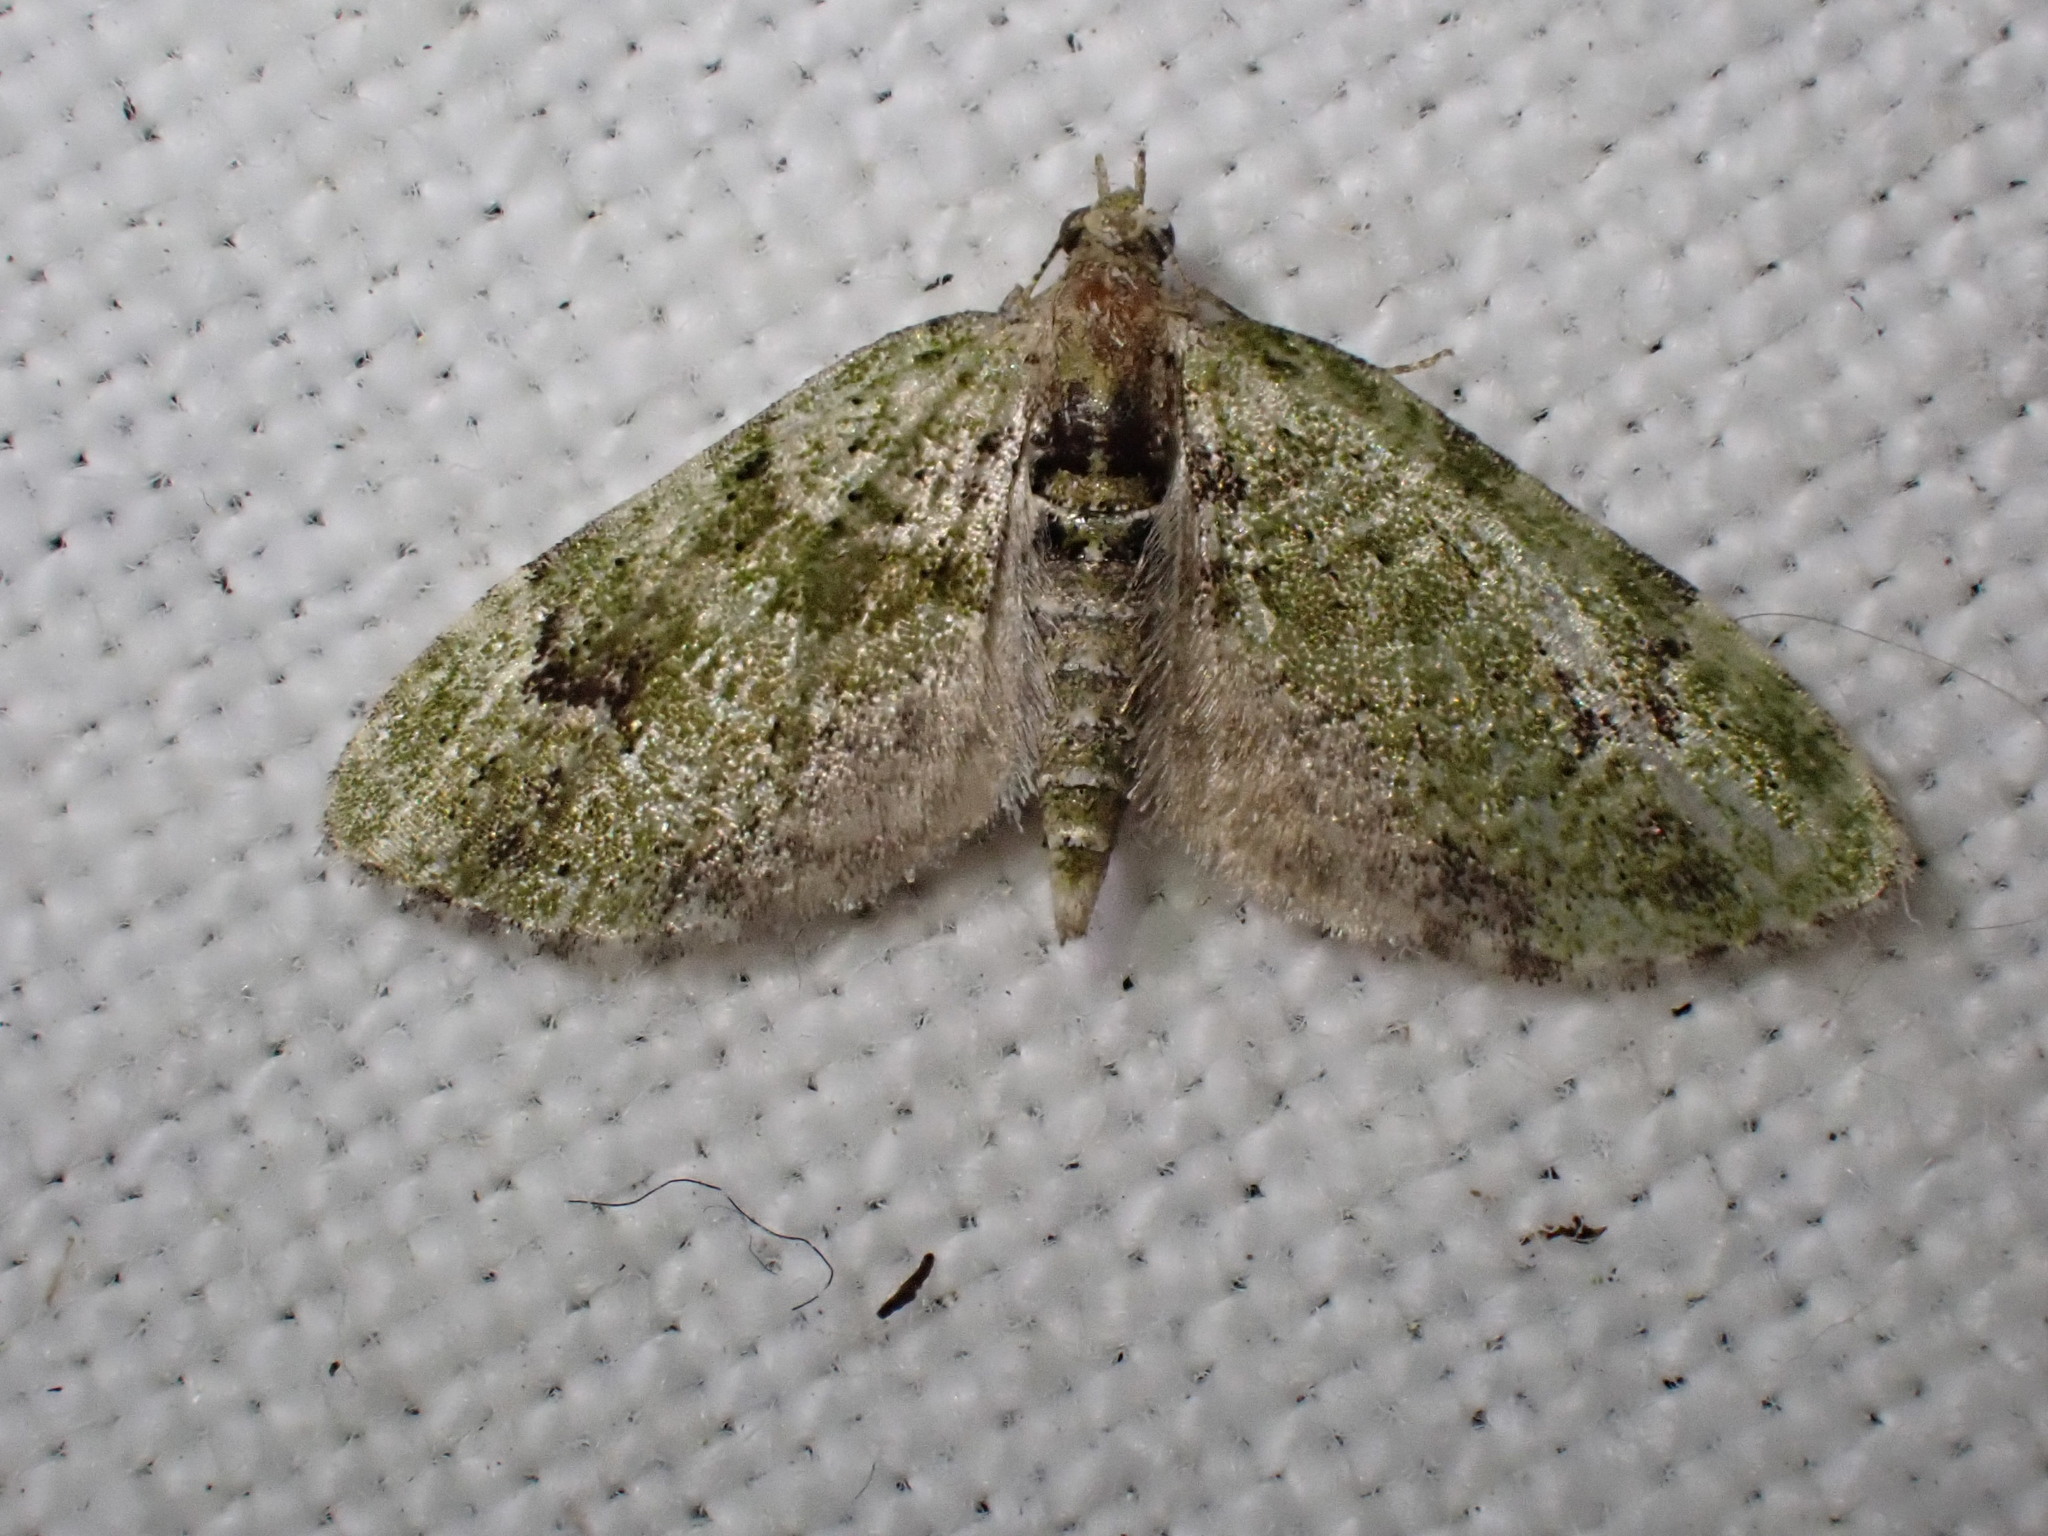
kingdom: Animalia
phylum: Arthropoda
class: Insecta
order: Lepidoptera
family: Geometridae
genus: Chloroclystis
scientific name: Chloroclystis v-ata
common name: V-pug
